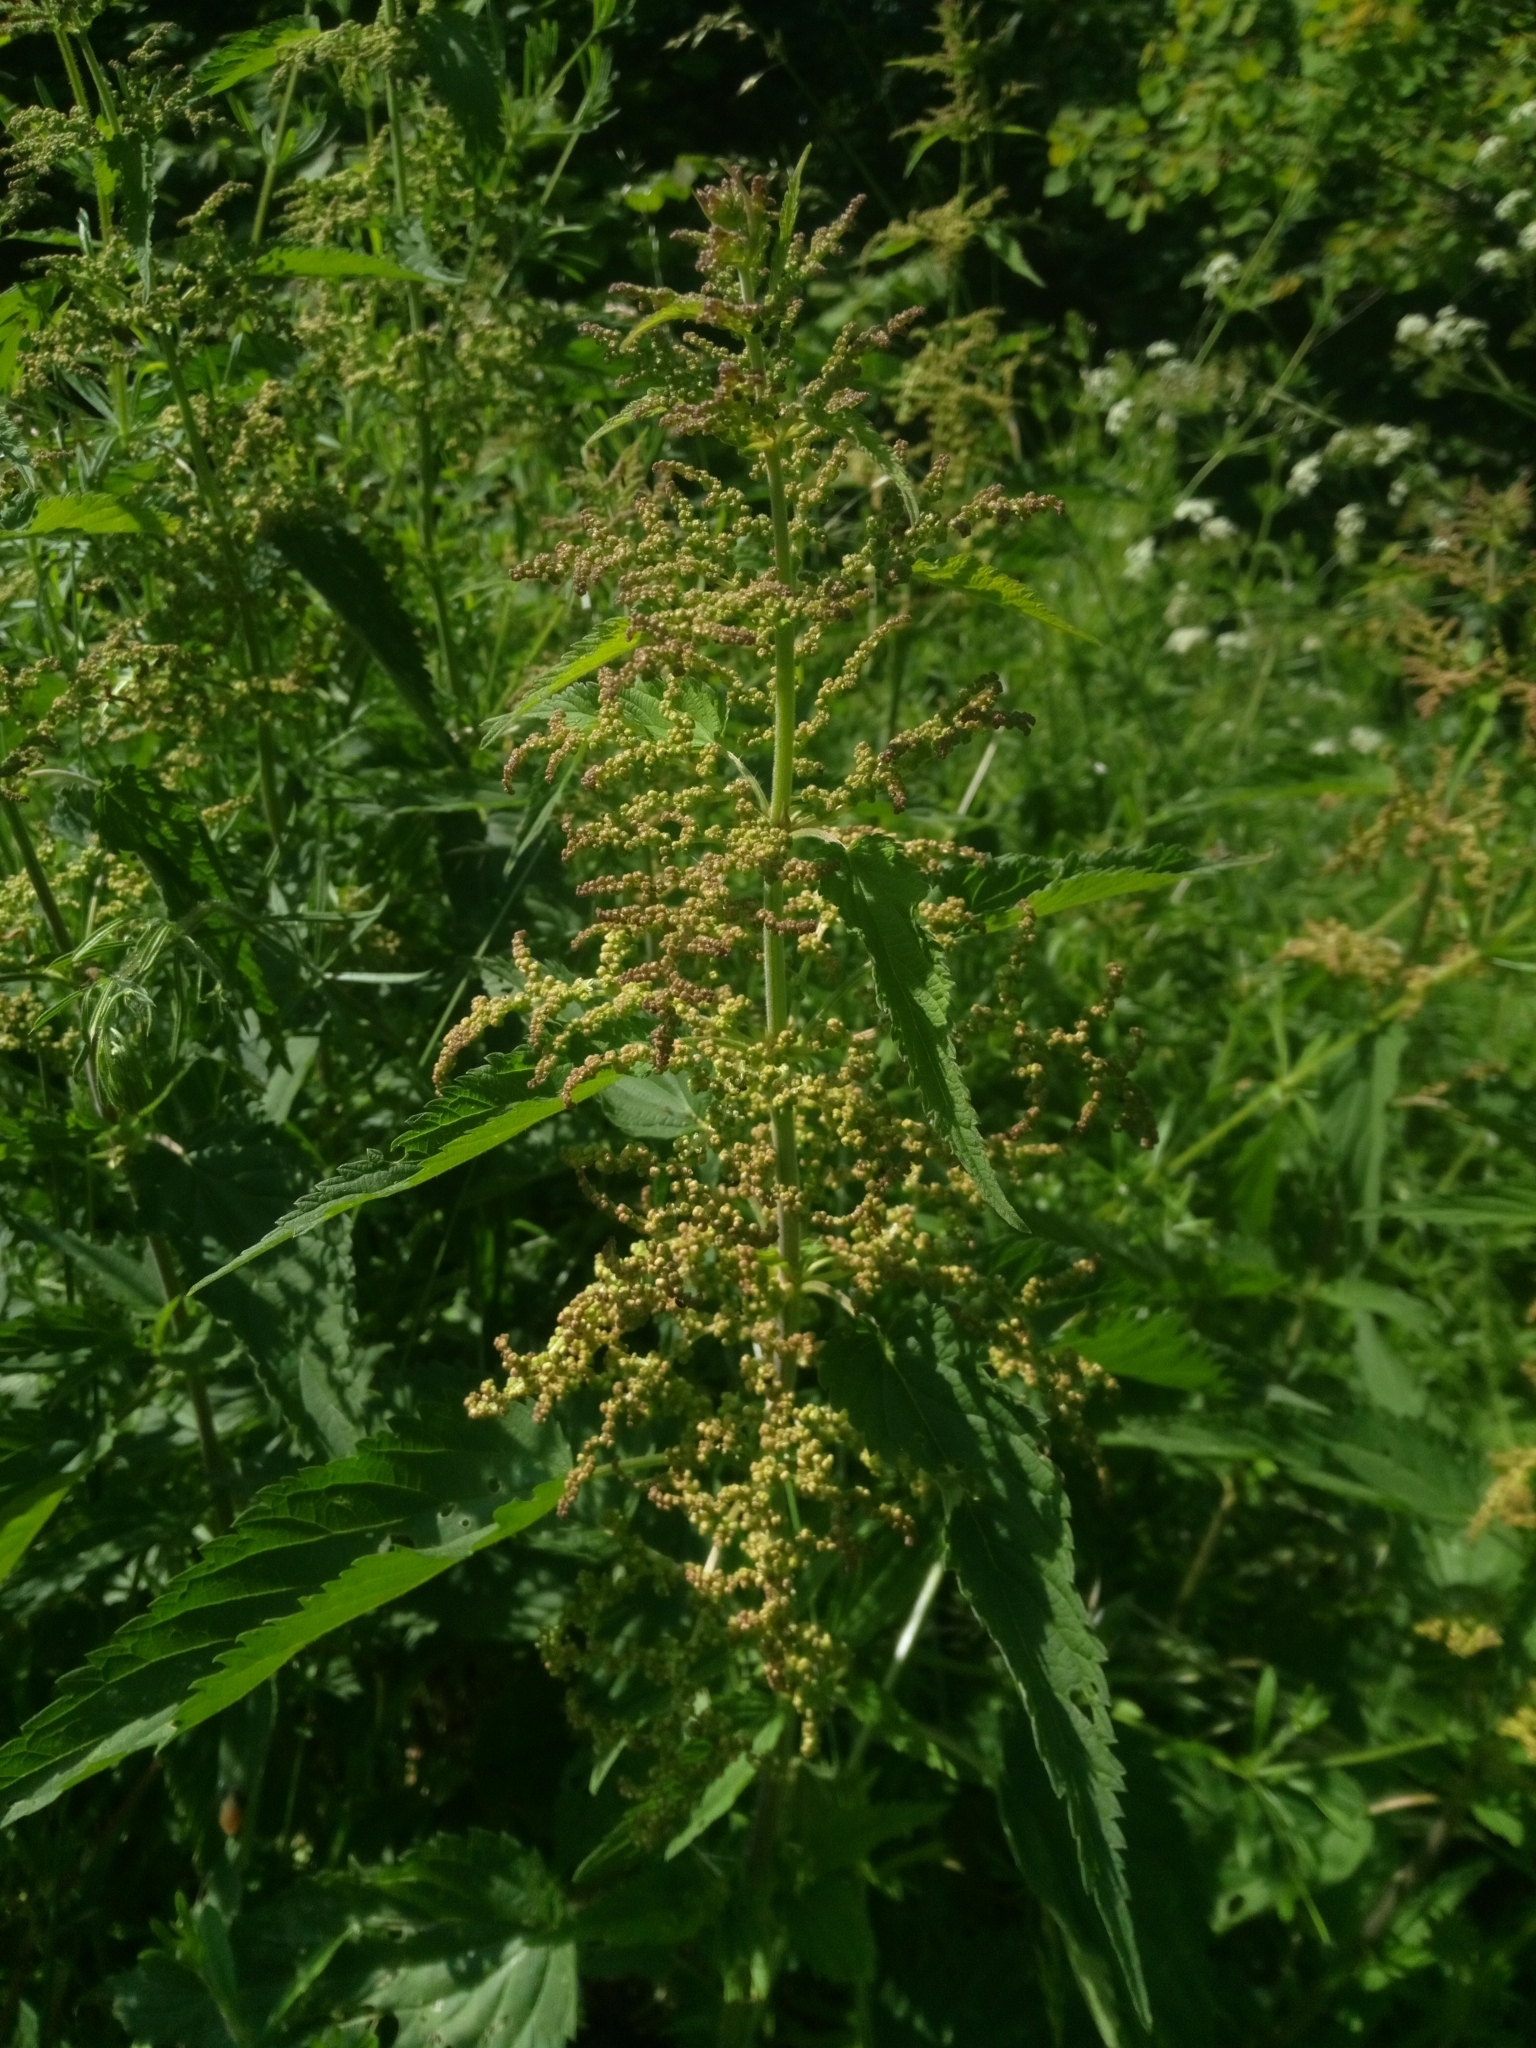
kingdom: Plantae
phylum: Tracheophyta
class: Magnoliopsida
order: Rosales
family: Urticaceae
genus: Urtica
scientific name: Urtica dioica
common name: Common nettle
